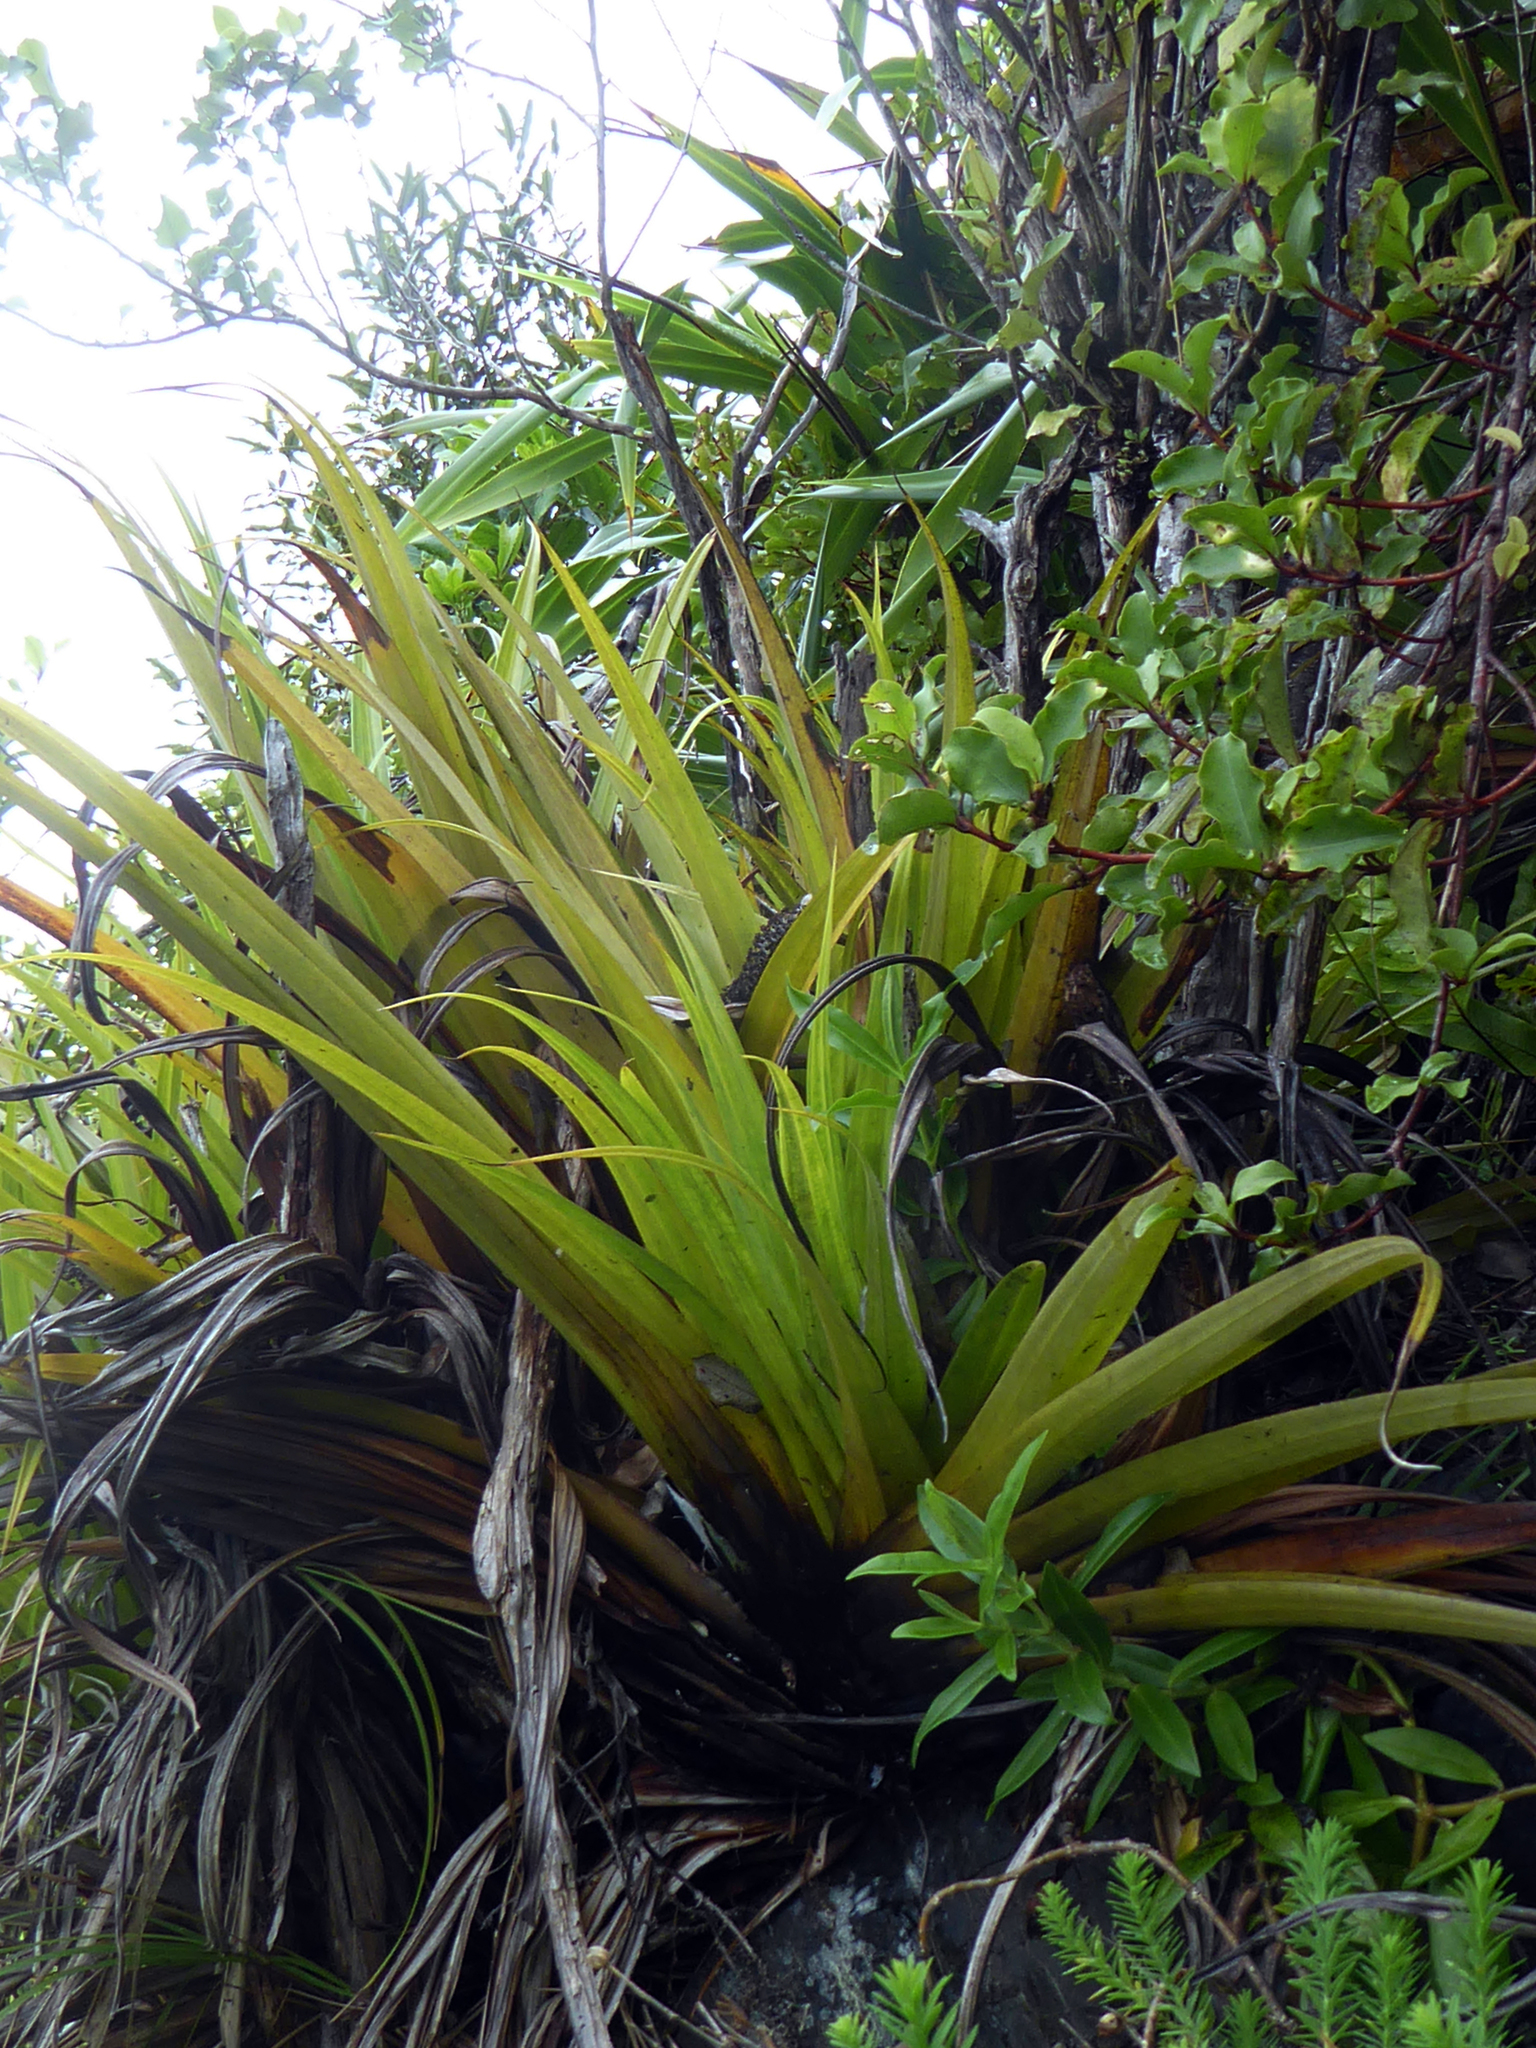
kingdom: Plantae
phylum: Tracheophyta
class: Liliopsida
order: Asparagales
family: Asteliaceae
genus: Astelia
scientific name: Astelia hastata
